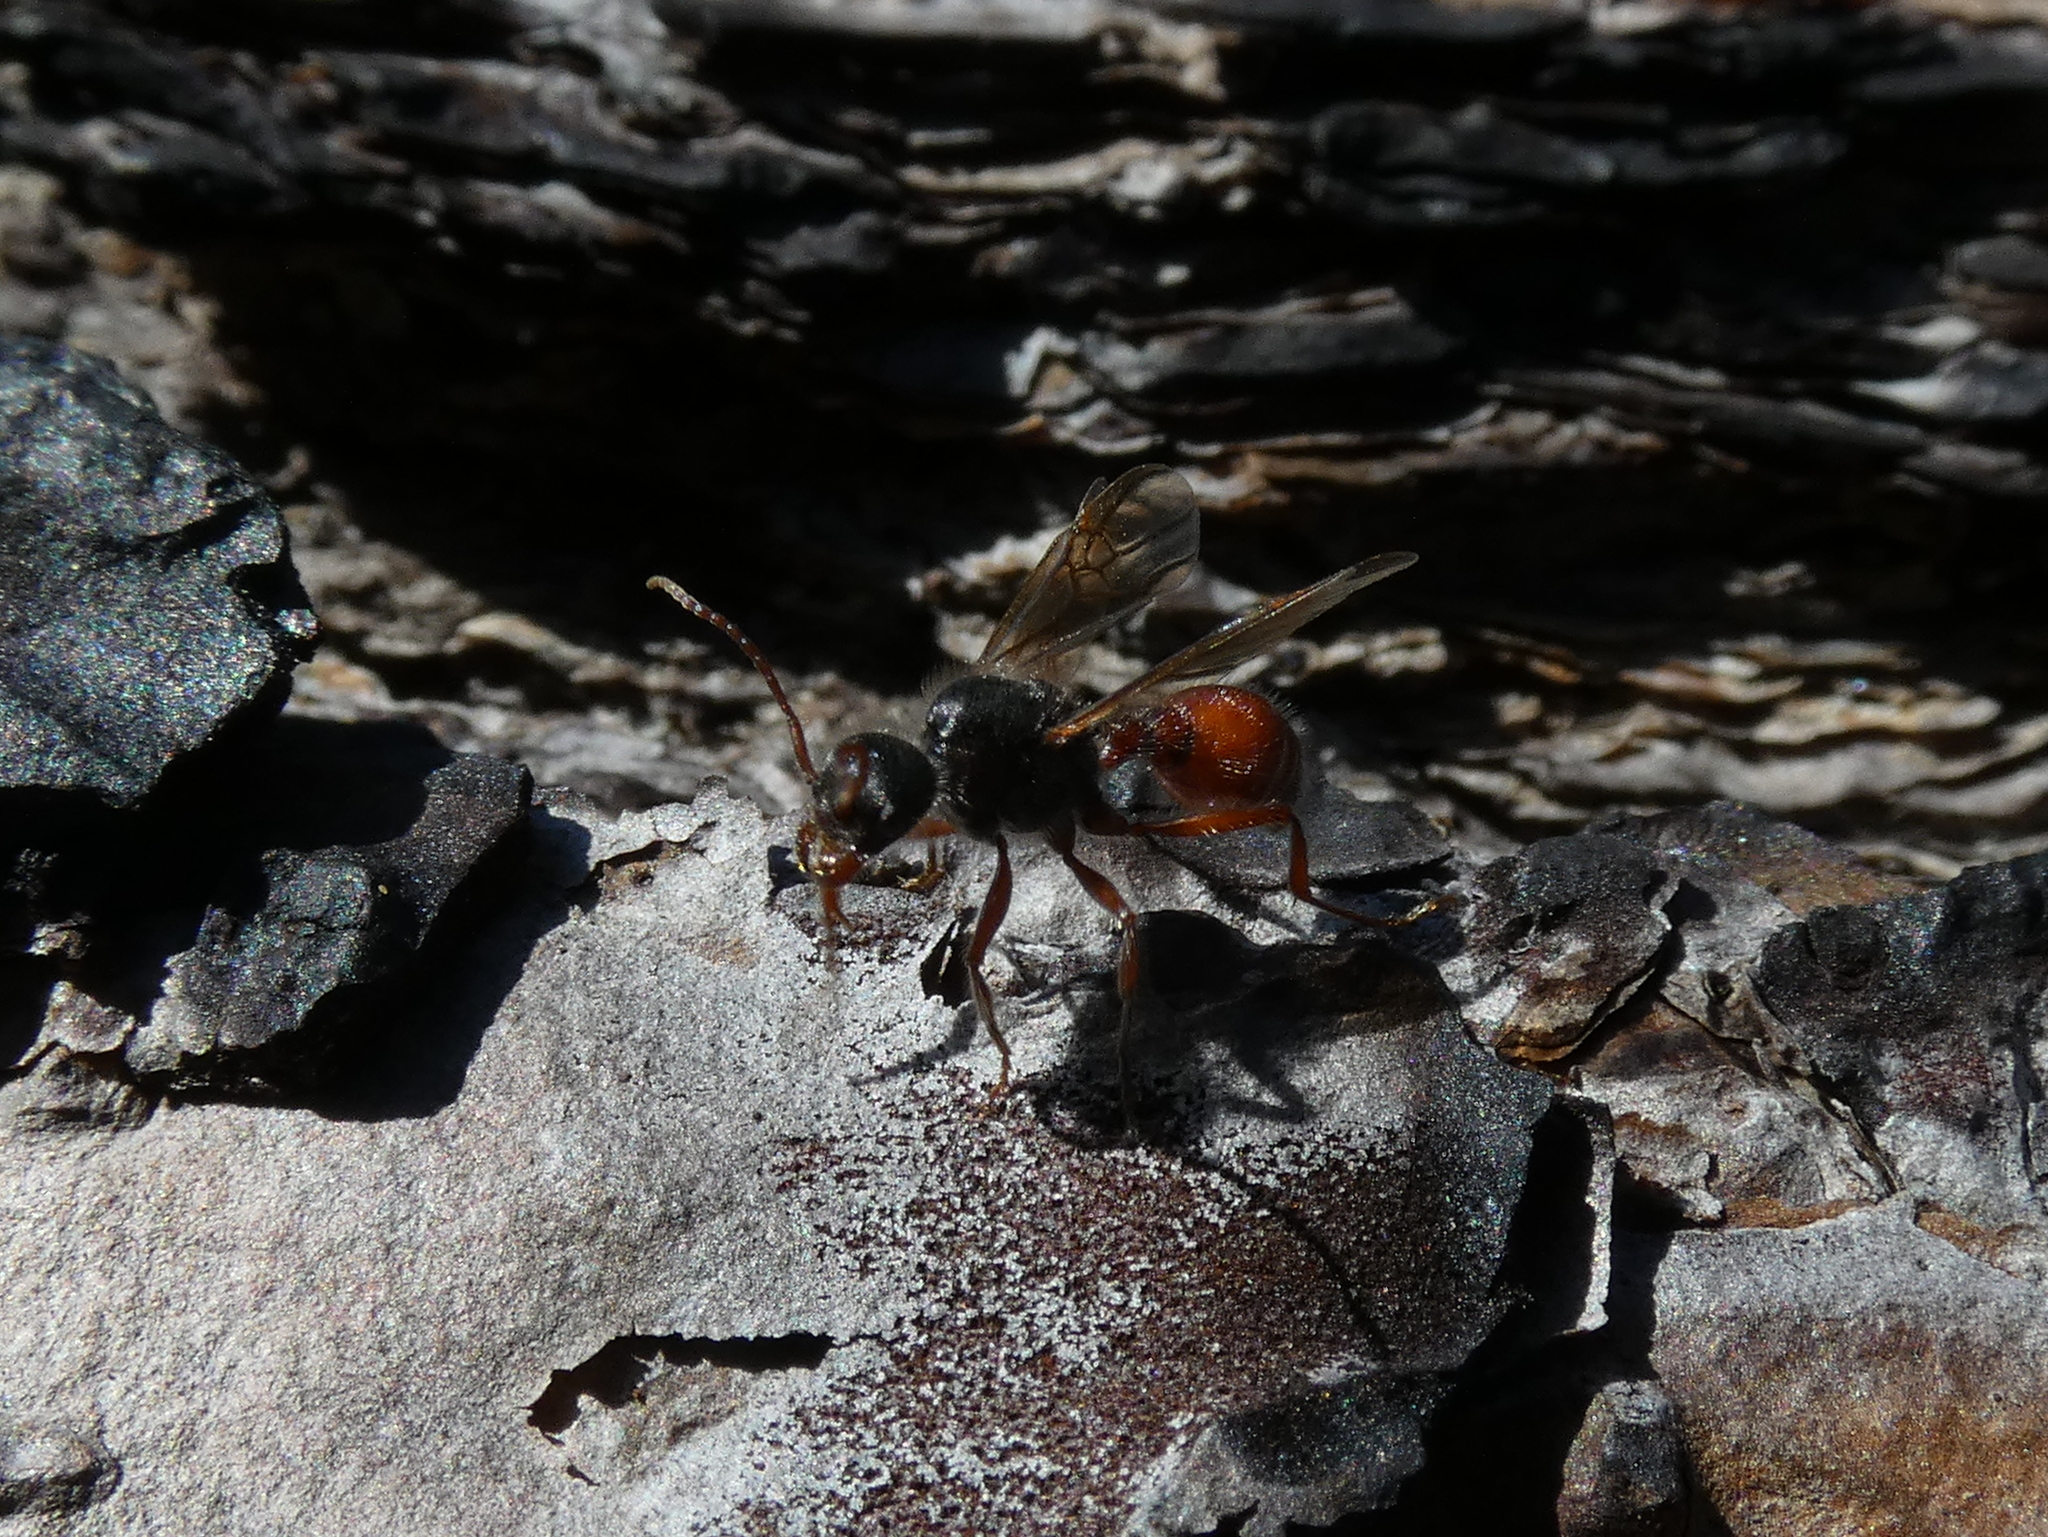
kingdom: Animalia
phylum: Arthropoda
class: Insecta
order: Hymenoptera
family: Formicidae
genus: Pogonomyrmex
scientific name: Pogonomyrmex badius
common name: Florida harvester ant
